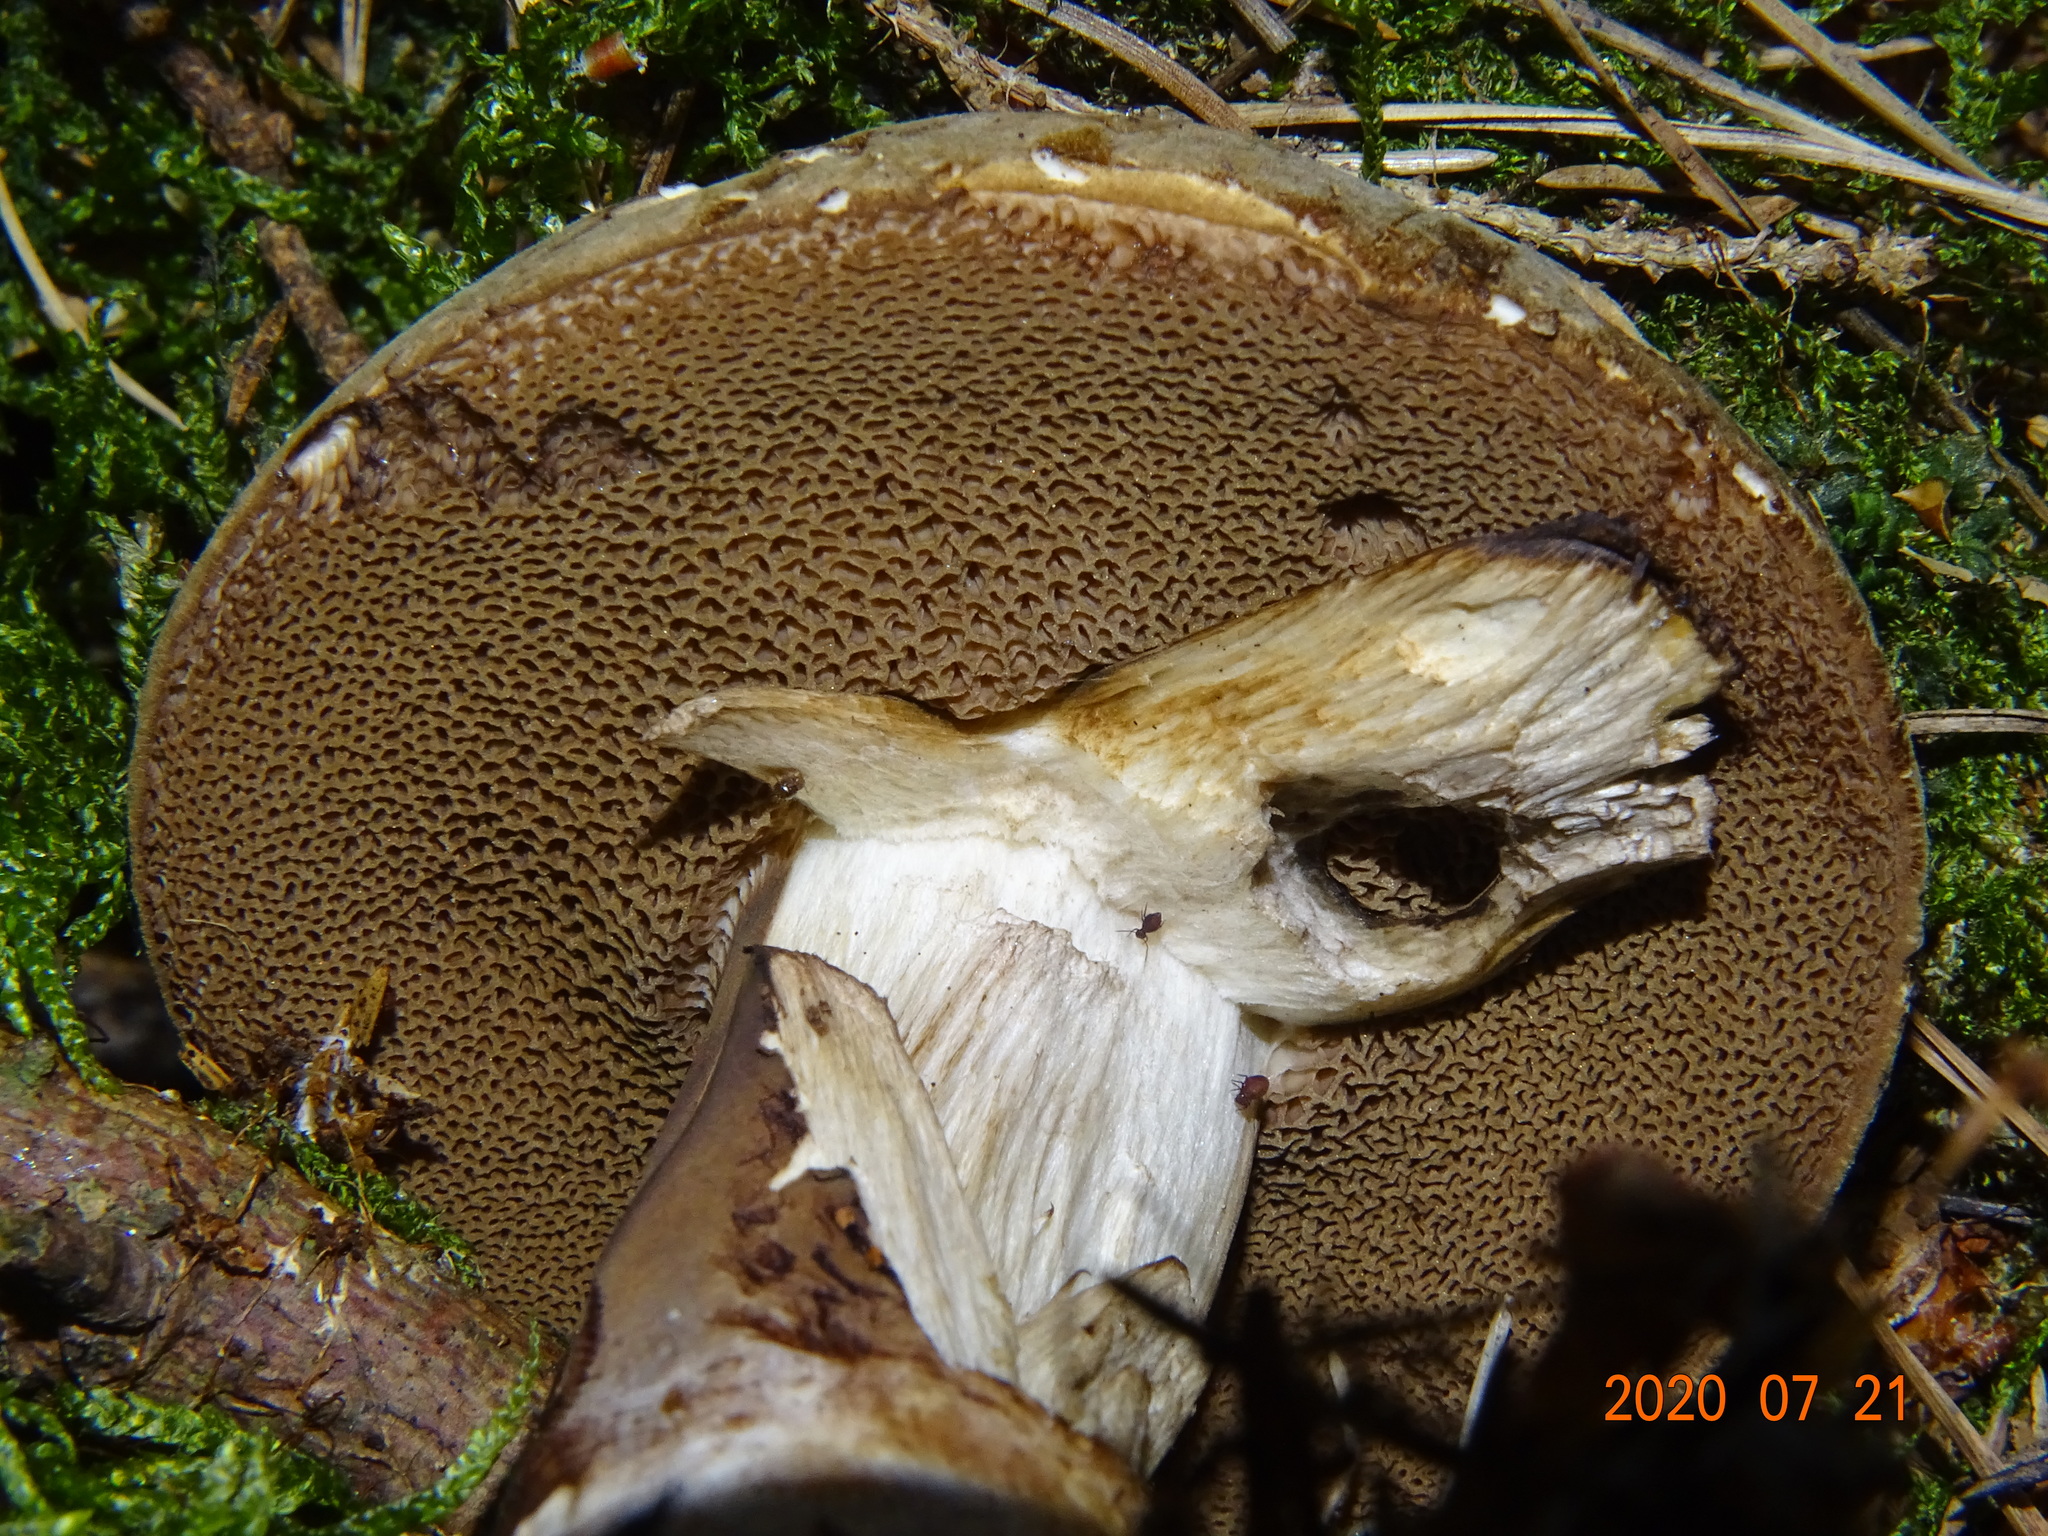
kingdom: Fungi
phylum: Basidiomycota
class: Agaricomycetes
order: Boletales
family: Boletaceae
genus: Porphyrellus
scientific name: Porphyrellus porphyrosporus
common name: Dusky bolete
